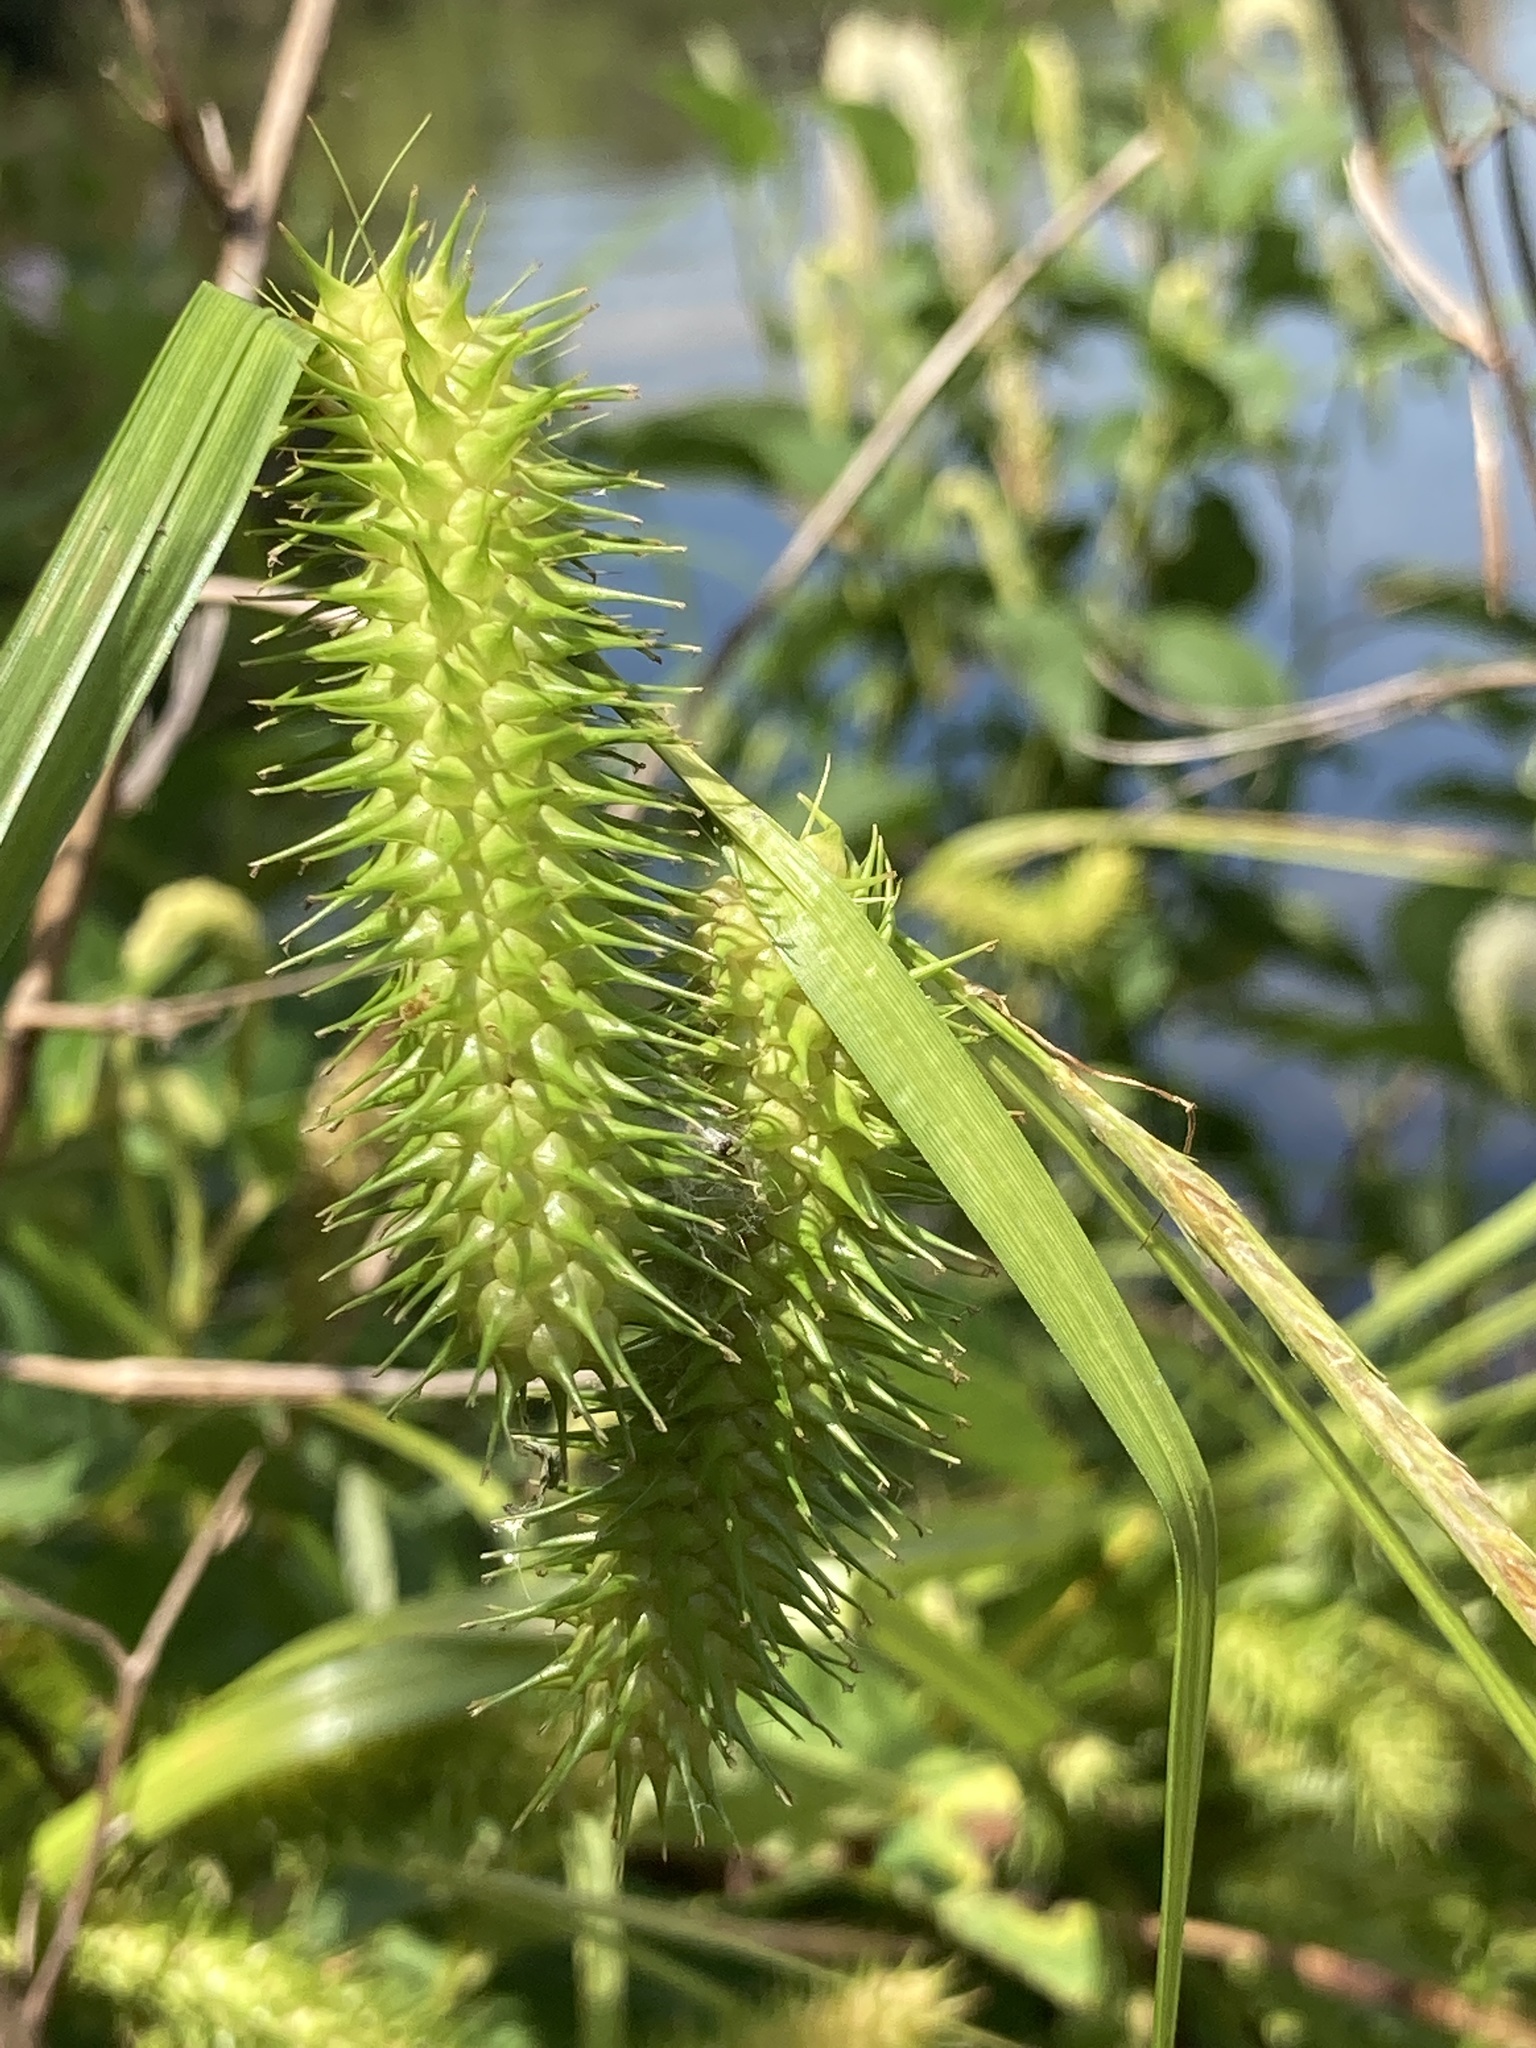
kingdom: Plantae
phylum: Tracheophyta
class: Liliopsida
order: Poales
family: Cyperaceae
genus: Carex
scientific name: Carex lurida
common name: Sallow sedge
